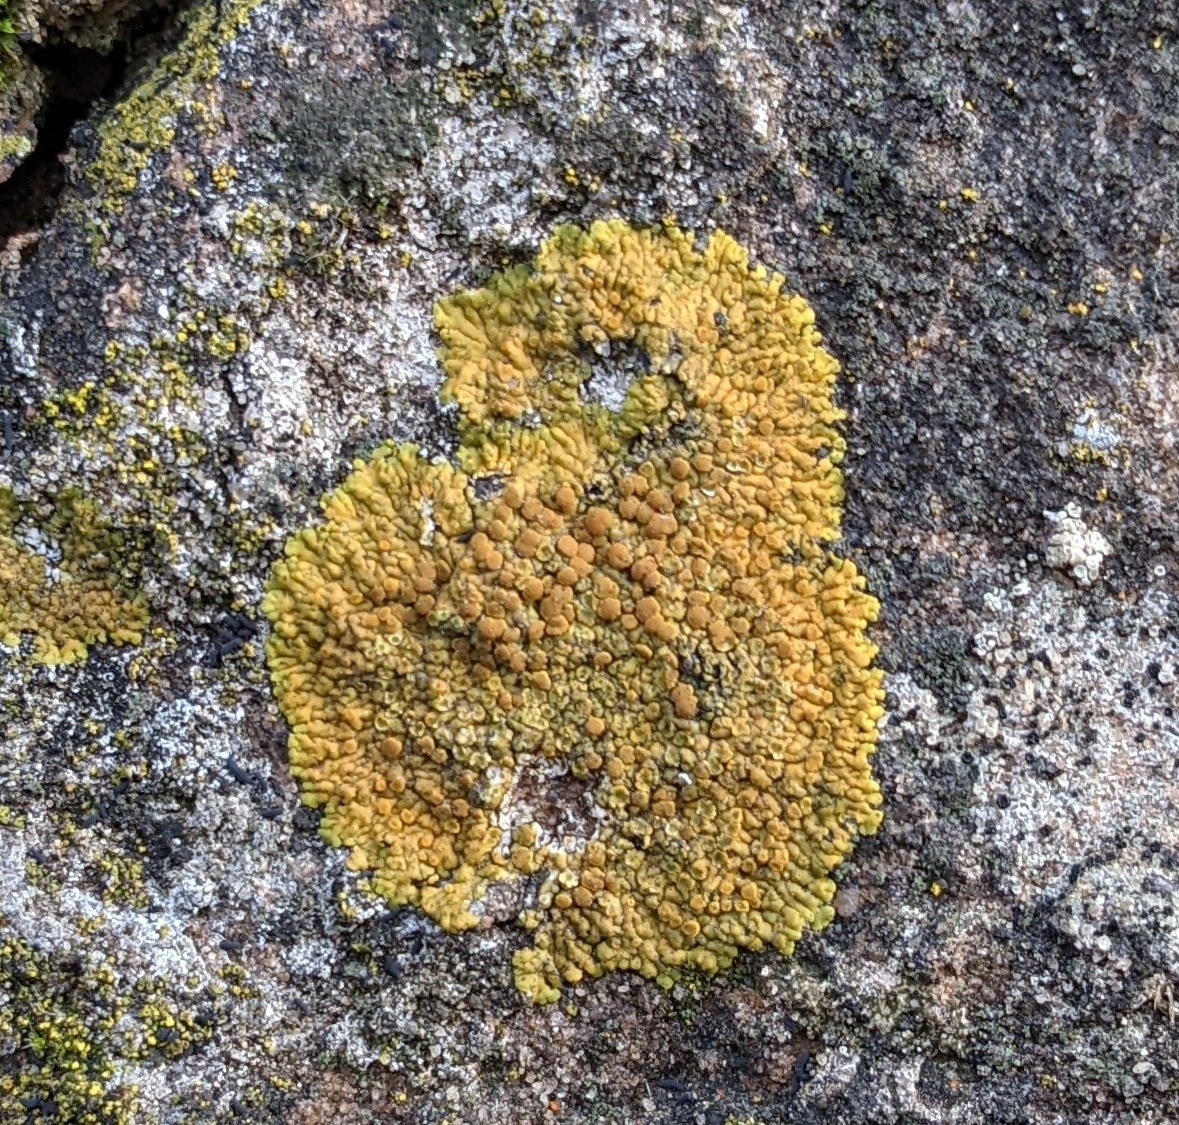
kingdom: Fungi
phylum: Ascomycota
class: Lecanoromycetes
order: Teloschistales
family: Teloschistaceae
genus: Variospora
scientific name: Variospora flavescens
